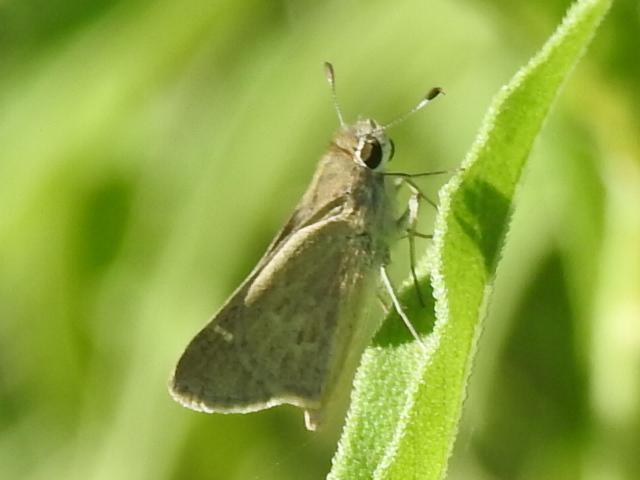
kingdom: Animalia
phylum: Arthropoda
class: Insecta
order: Lepidoptera
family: Hesperiidae
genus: Lerodea
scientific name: Lerodea eufala
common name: Eufala skipper
